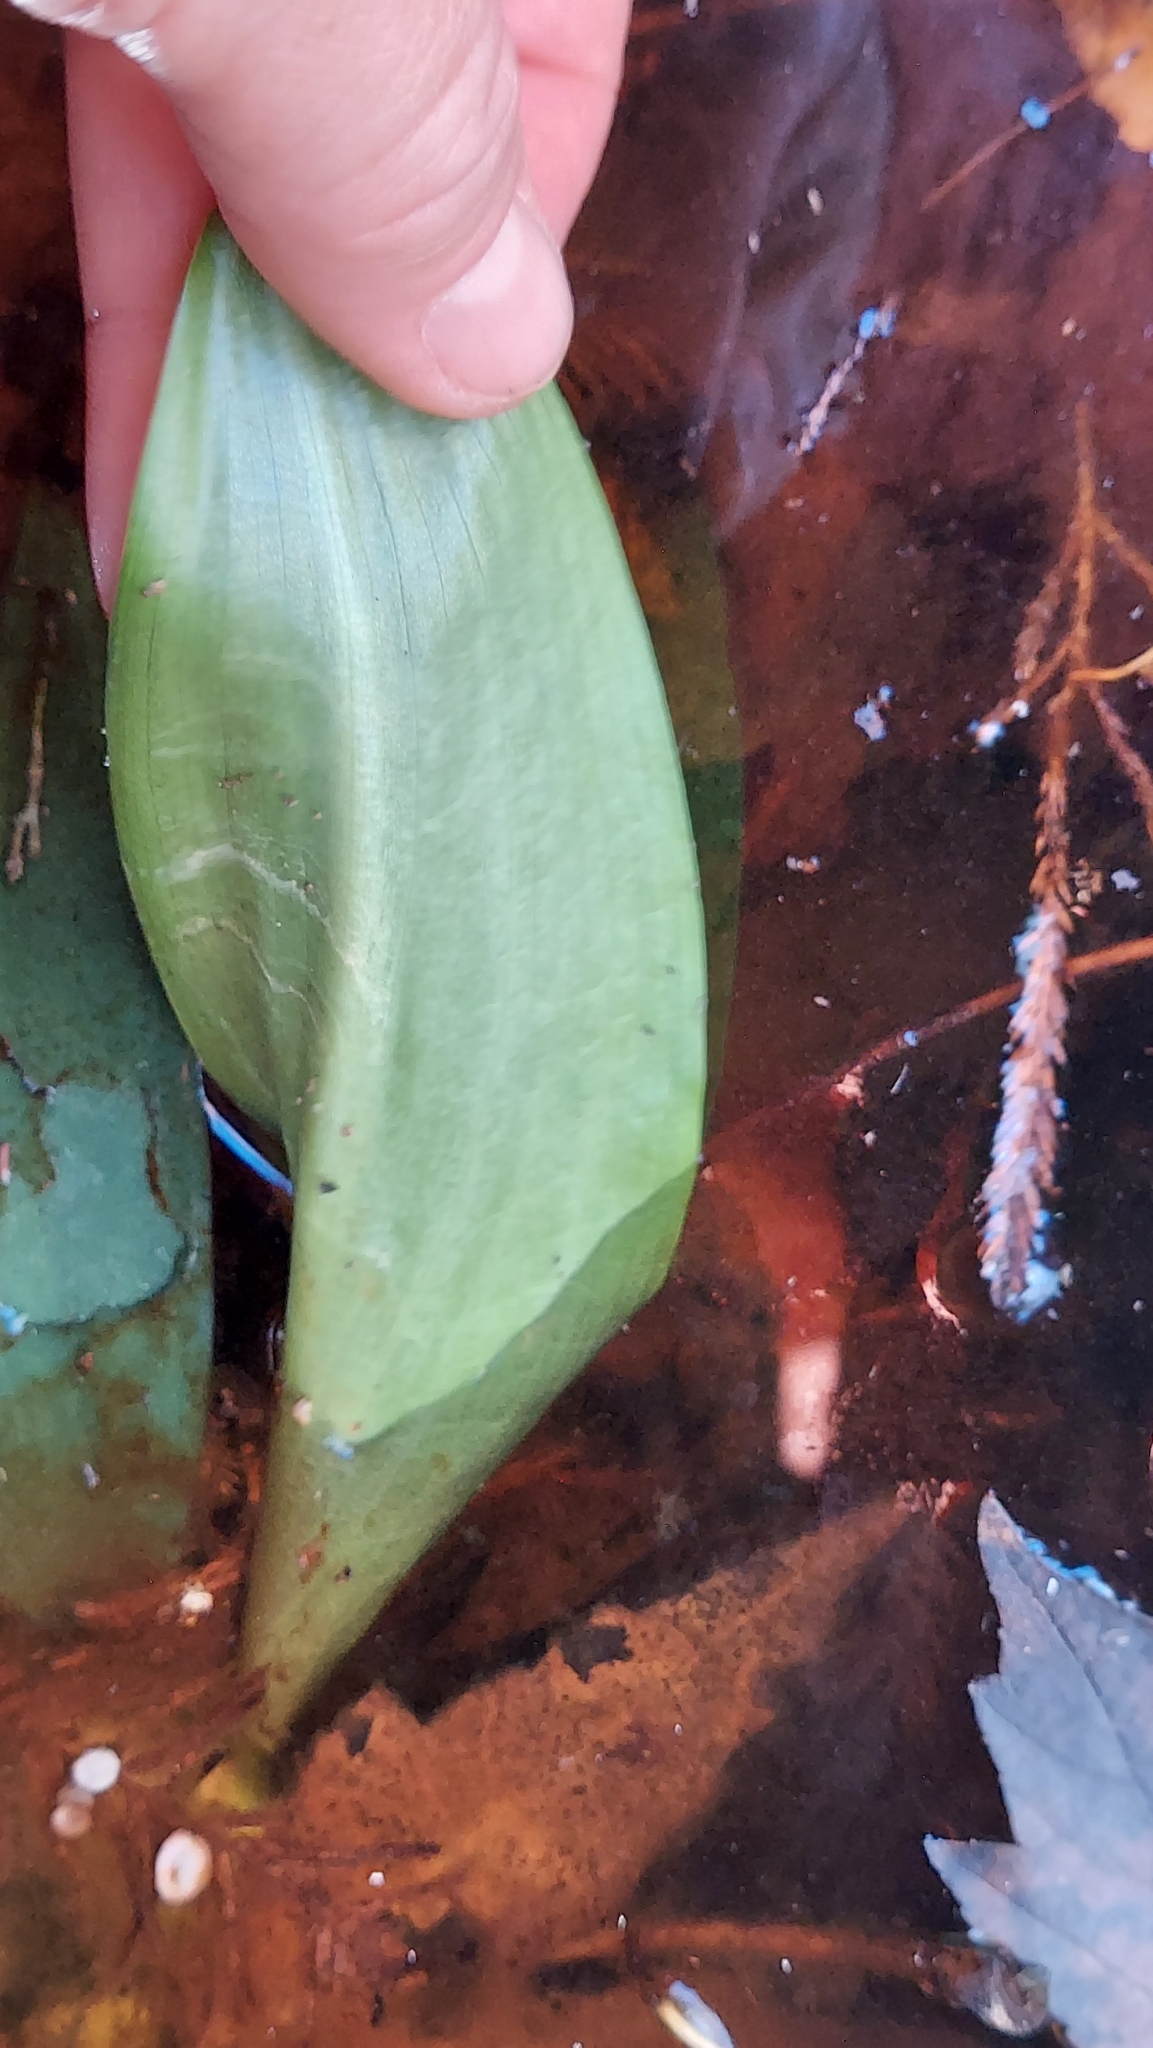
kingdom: Plantae
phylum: Tracheophyta
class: Liliopsida
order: Alismatales
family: Araceae
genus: Orontium
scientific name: Orontium aquaticum
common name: Golden-club
